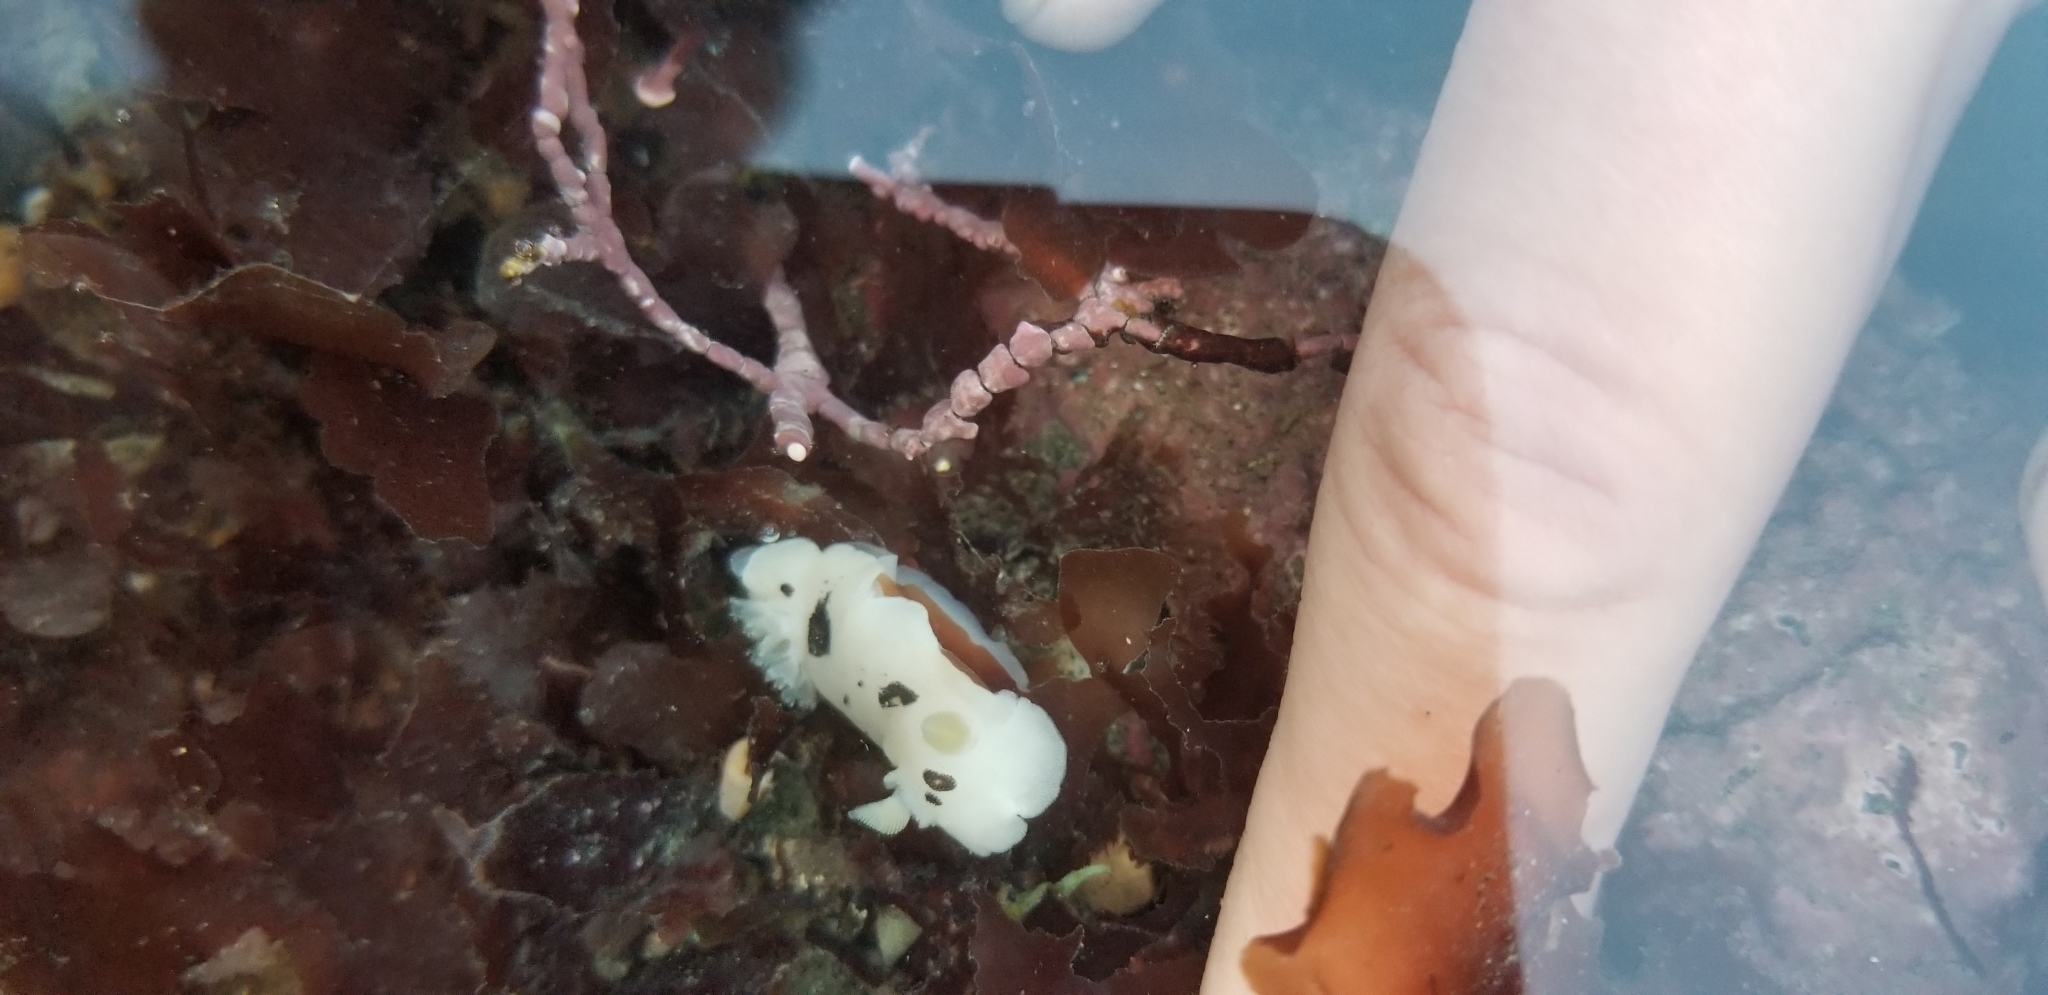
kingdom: Animalia
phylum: Mollusca
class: Gastropoda
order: Nudibranchia
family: Discodorididae
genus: Diaulula
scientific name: Diaulula sandiegensis
